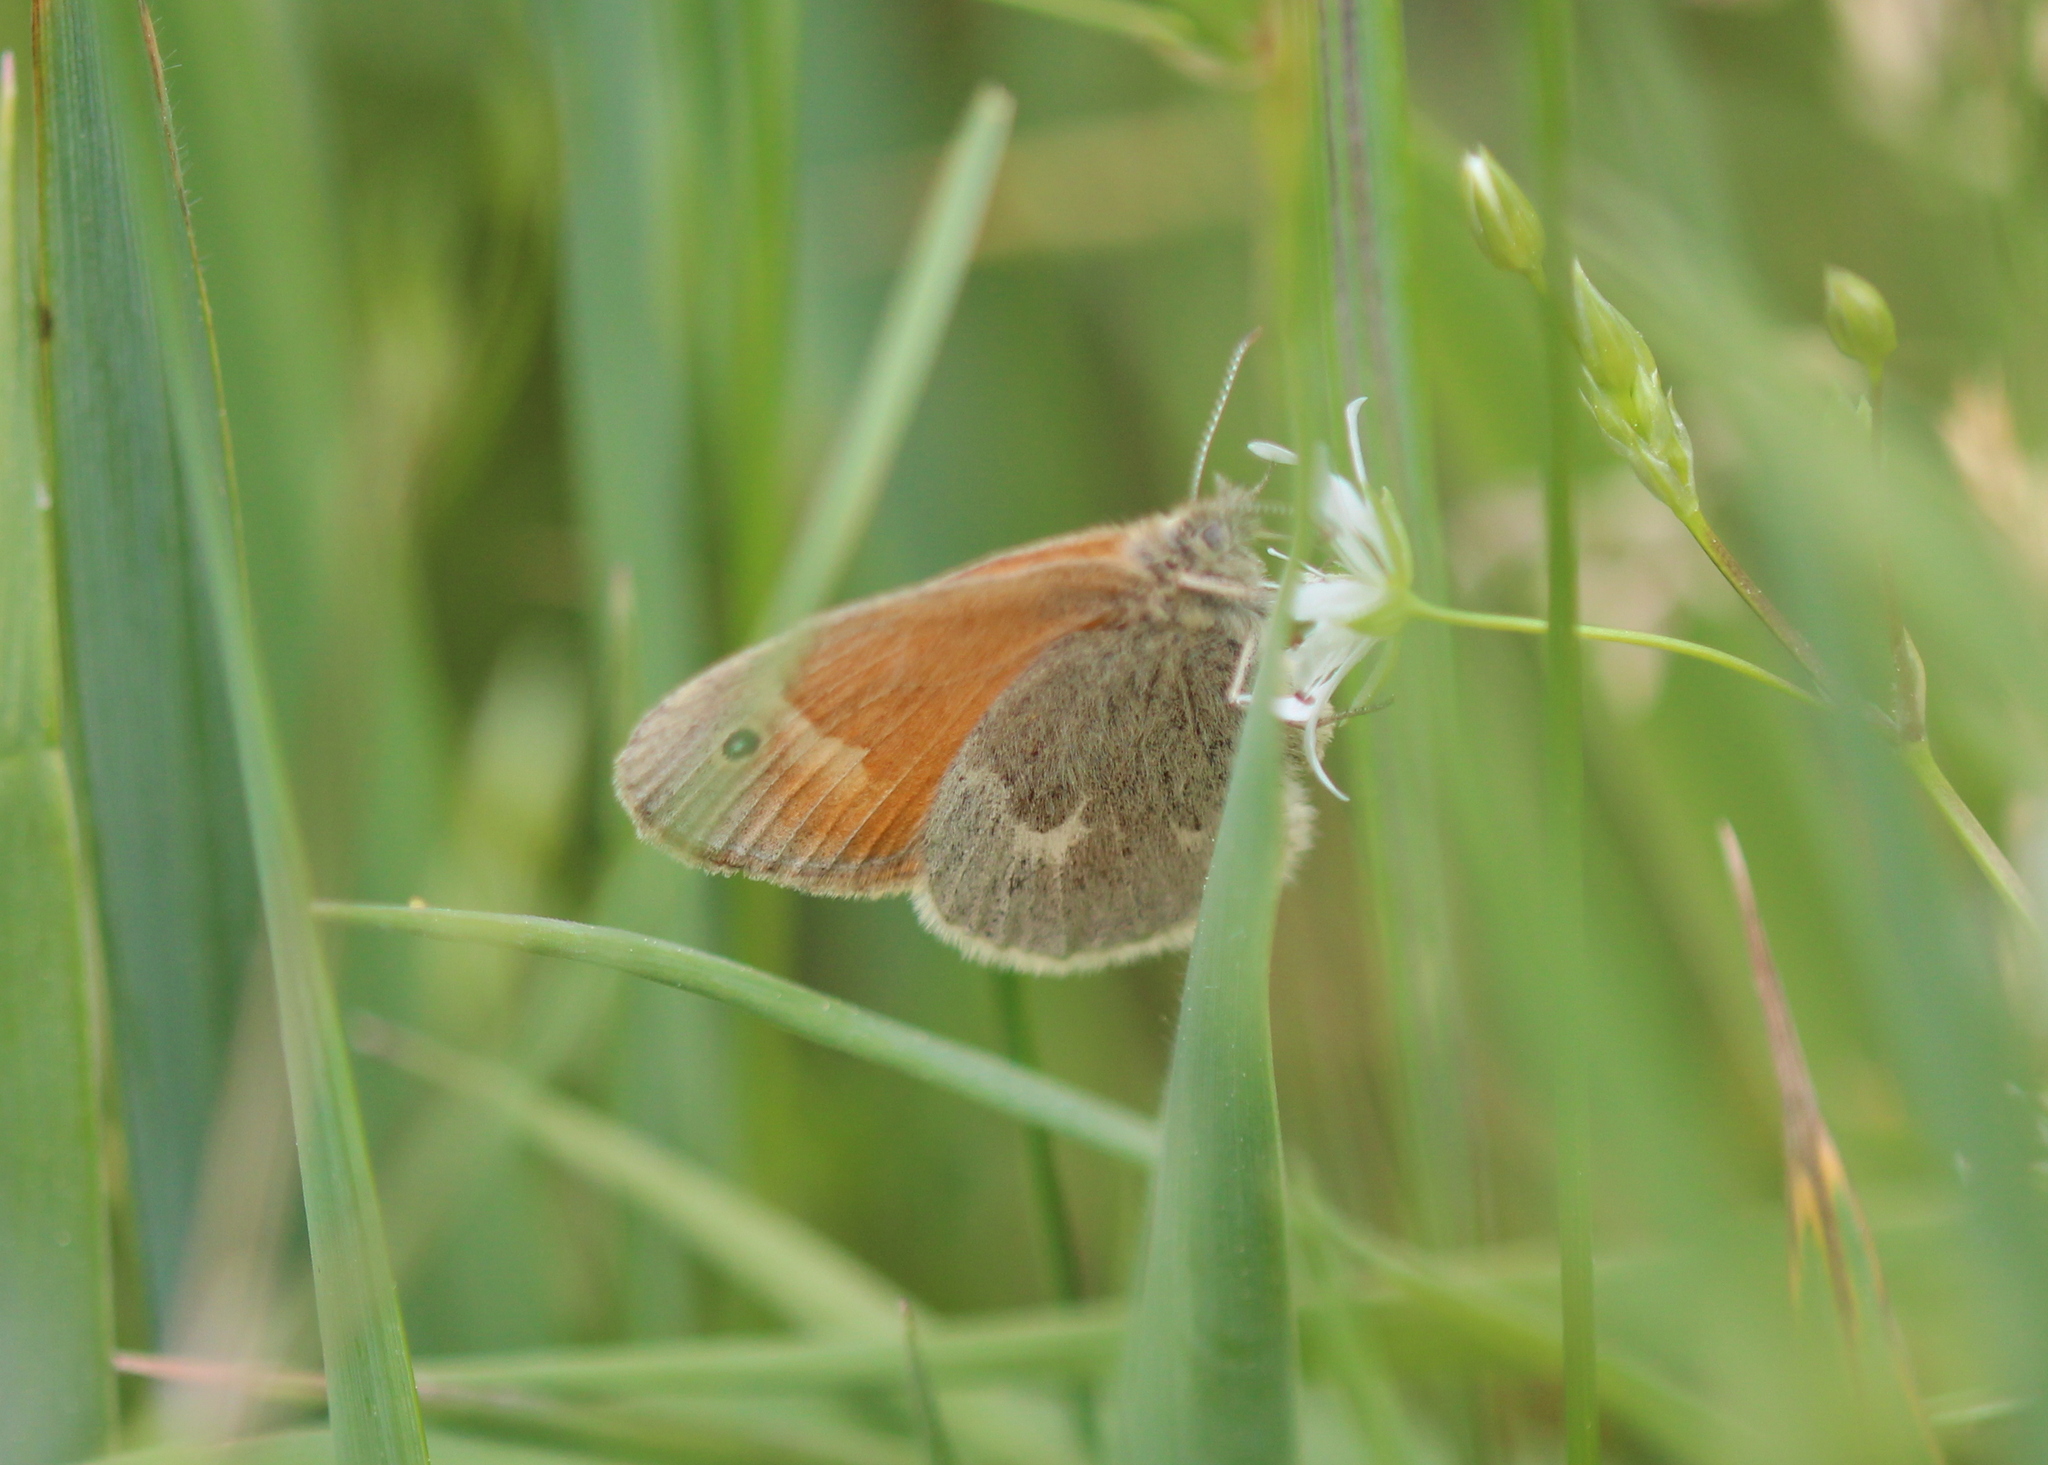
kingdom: Animalia
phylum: Arthropoda
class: Insecta
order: Lepidoptera
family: Nymphalidae
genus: Coenonympha
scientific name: Coenonympha california
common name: Common ringlet
